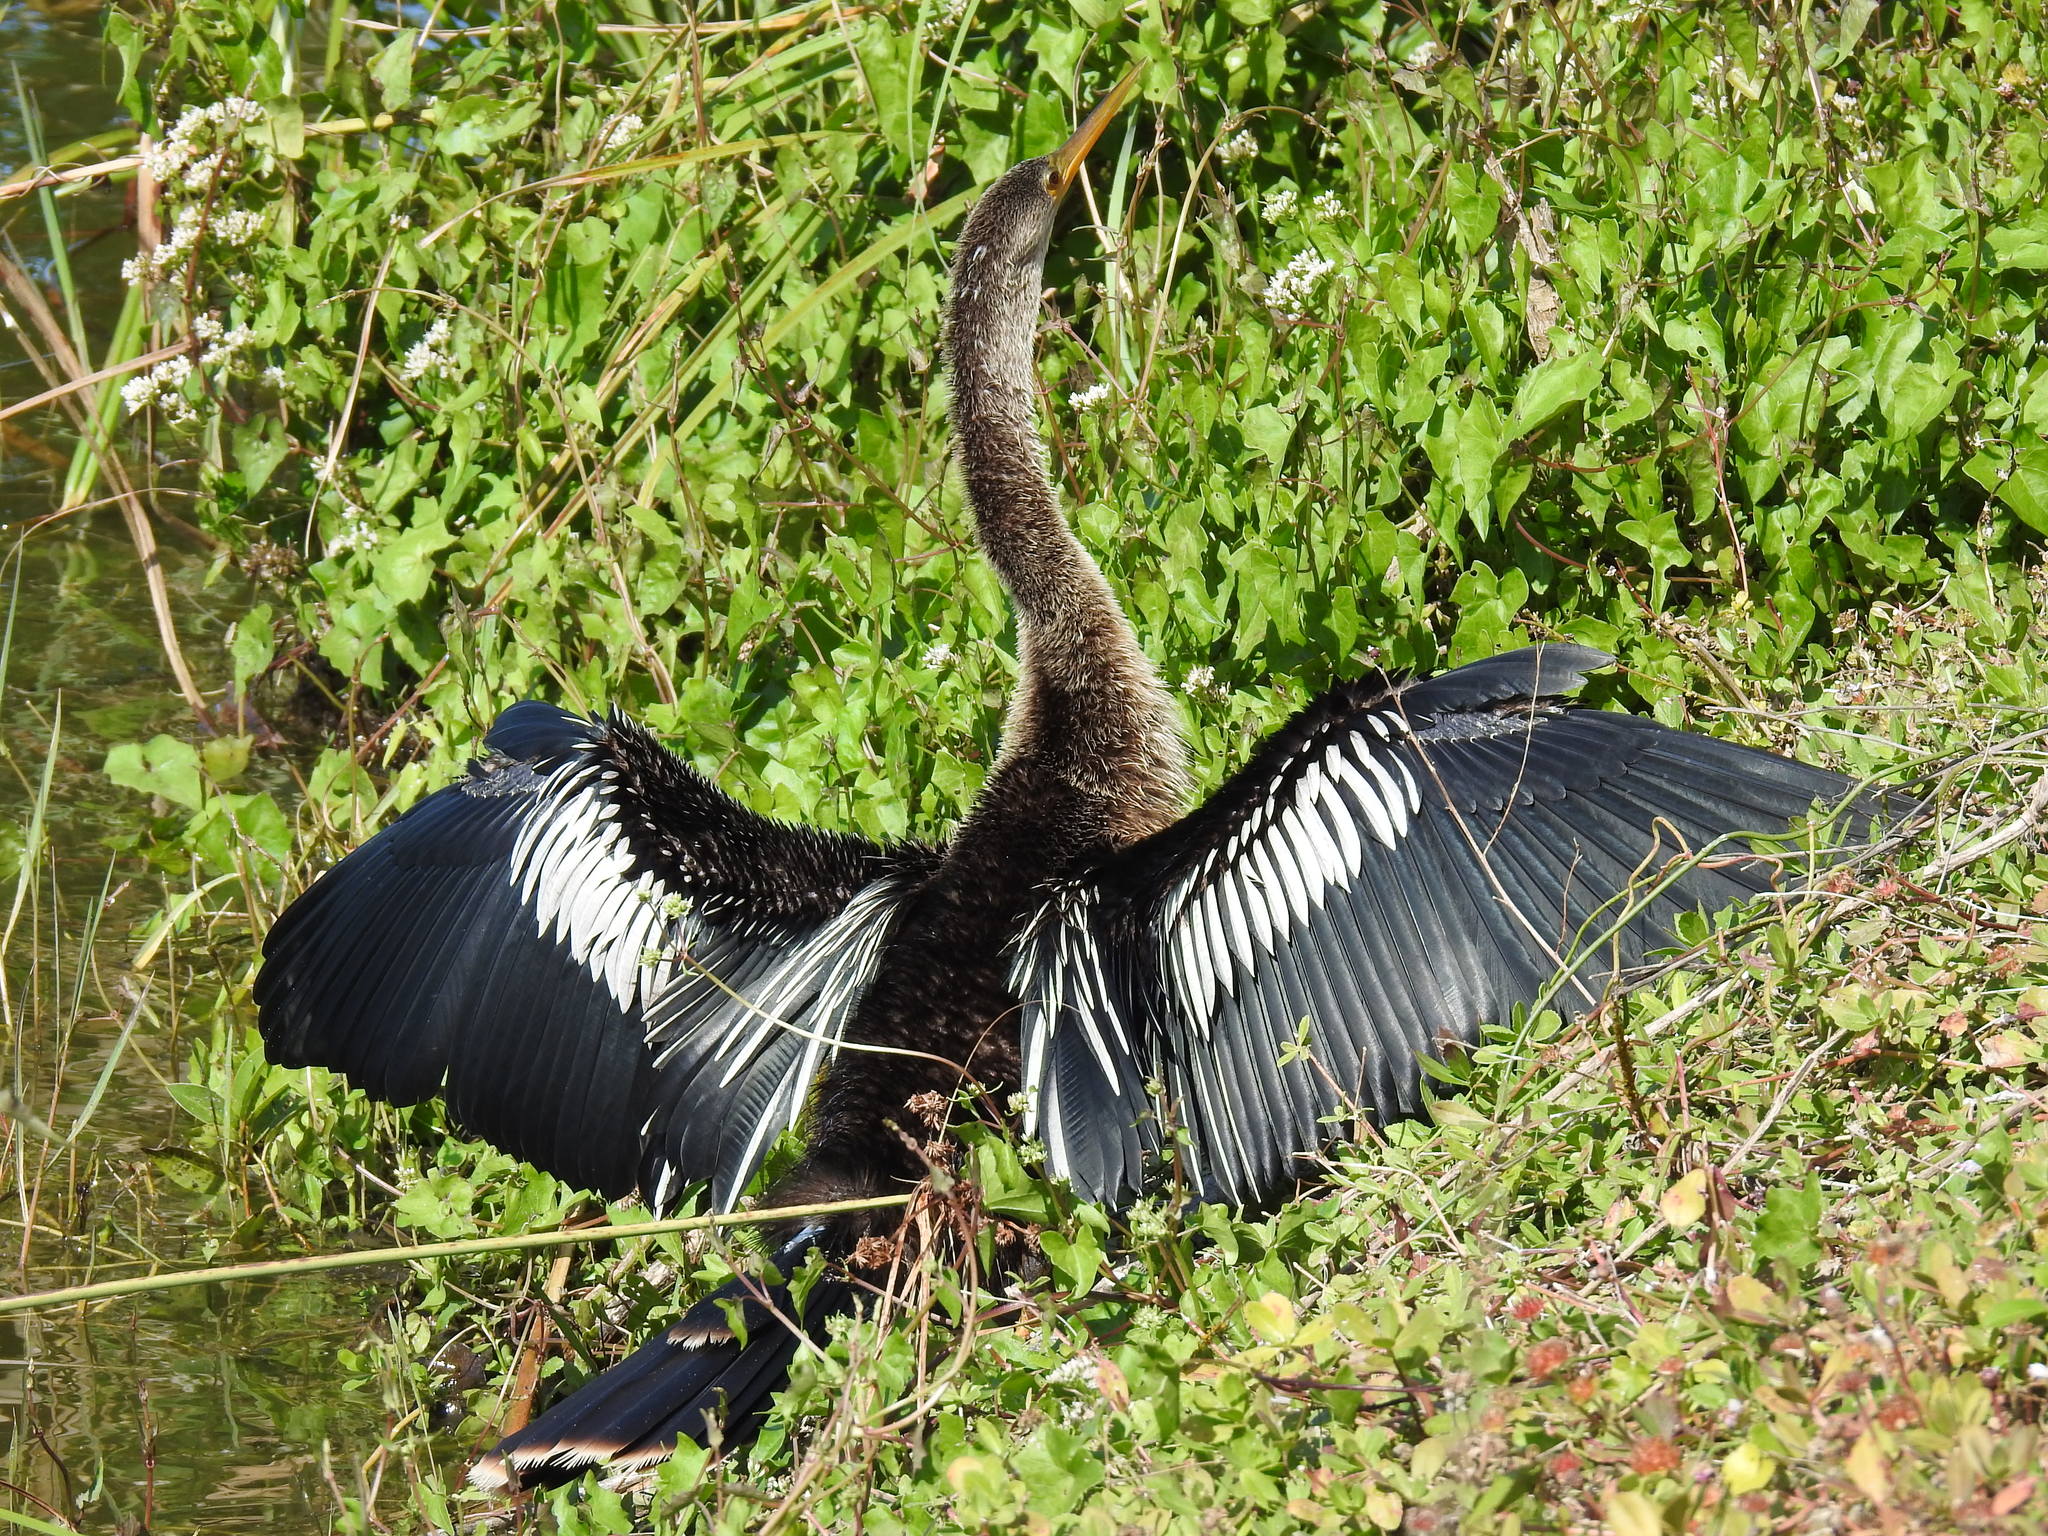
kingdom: Animalia
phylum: Chordata
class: Aves
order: Suliformes
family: Anhingidae
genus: Anhinga
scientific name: Anhinga anhinga
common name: Anhinga
